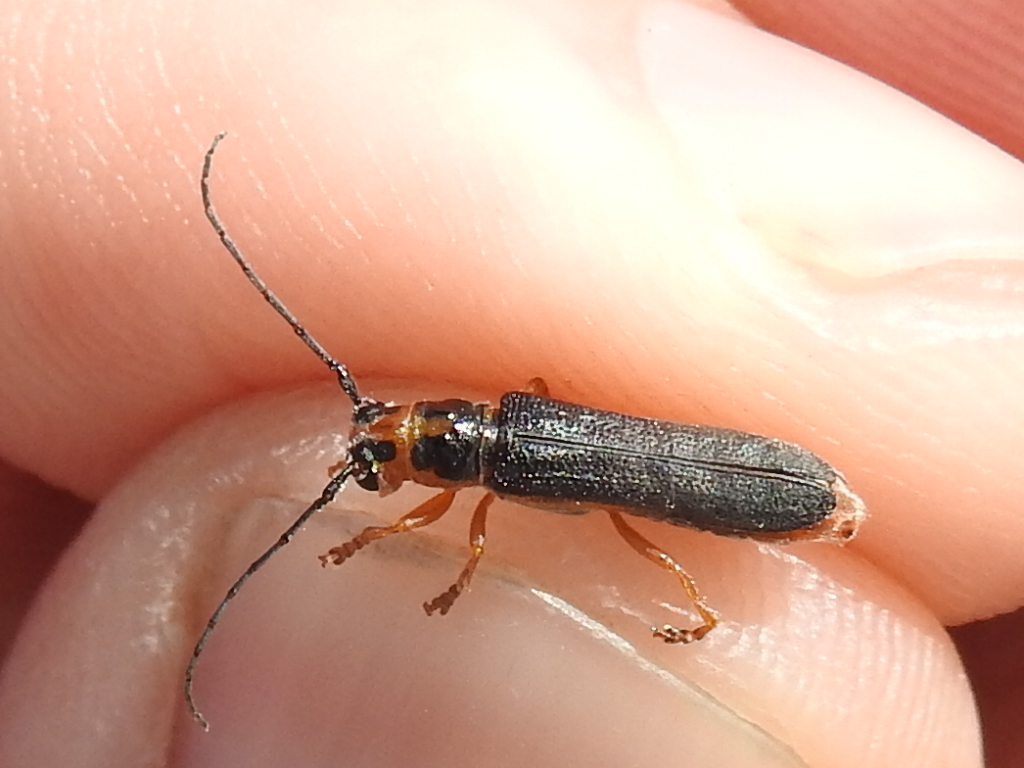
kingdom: Animalia
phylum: Arthropoda
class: Insecta
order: Coleoptera
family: Cerambycidae
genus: Oberea
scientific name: Oberea delongi
